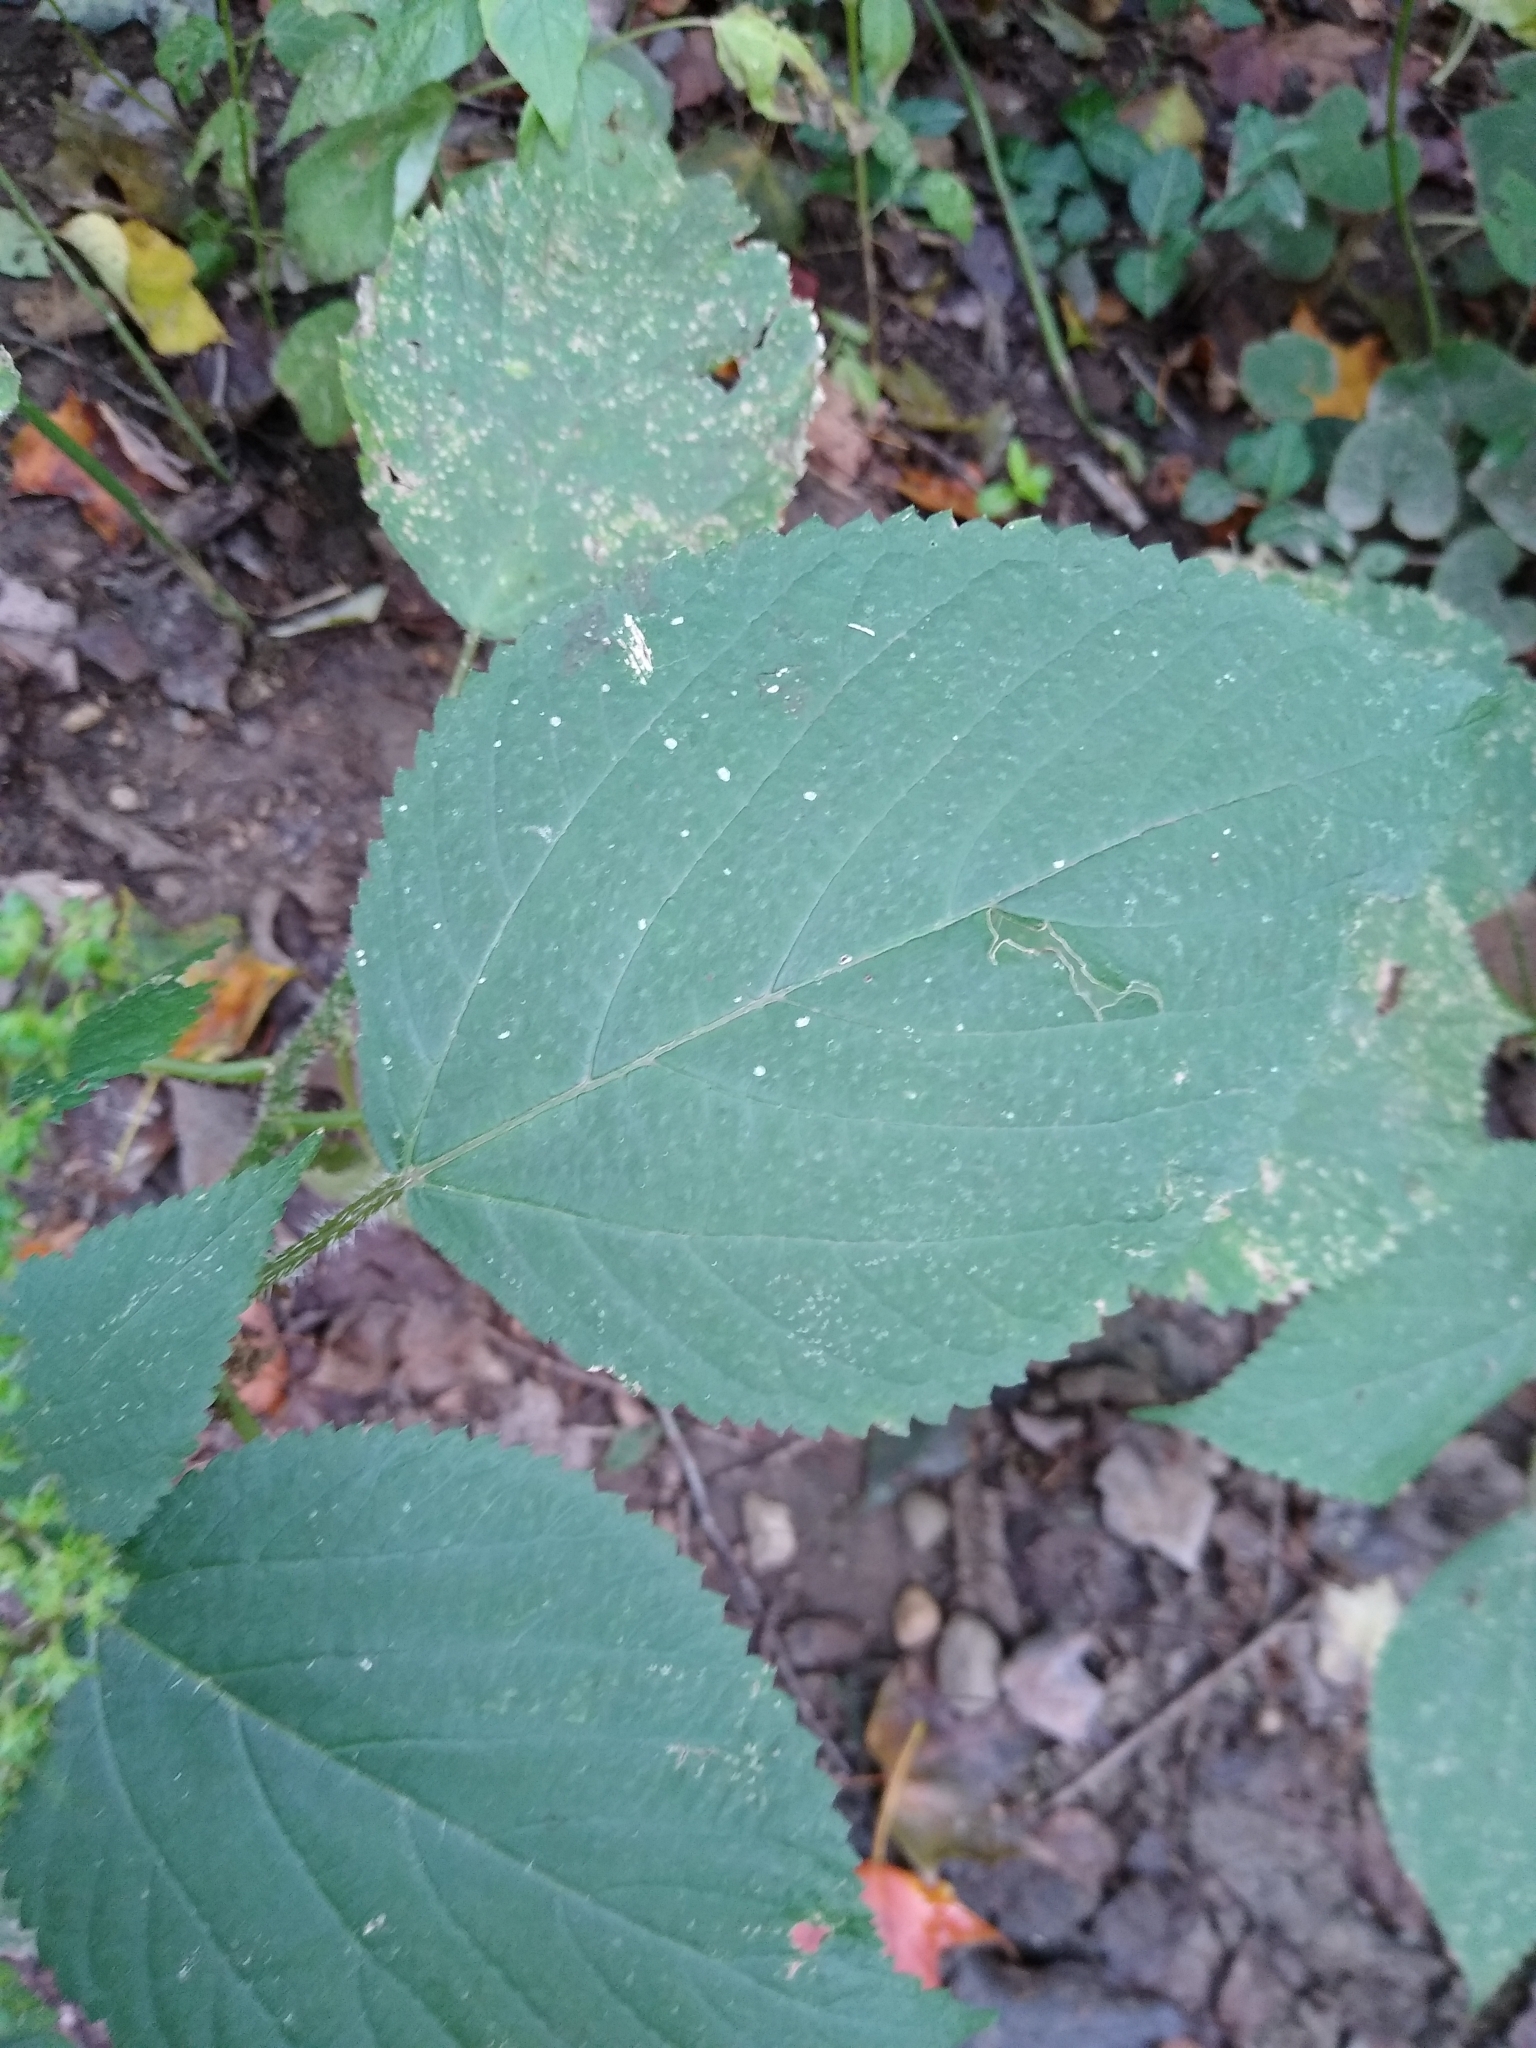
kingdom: Plantae
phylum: Tracheophyta
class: Magnoliopsida
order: Rosales
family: Urticaceae
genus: Laportea
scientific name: Laportea canadensis
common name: Canada nettle
